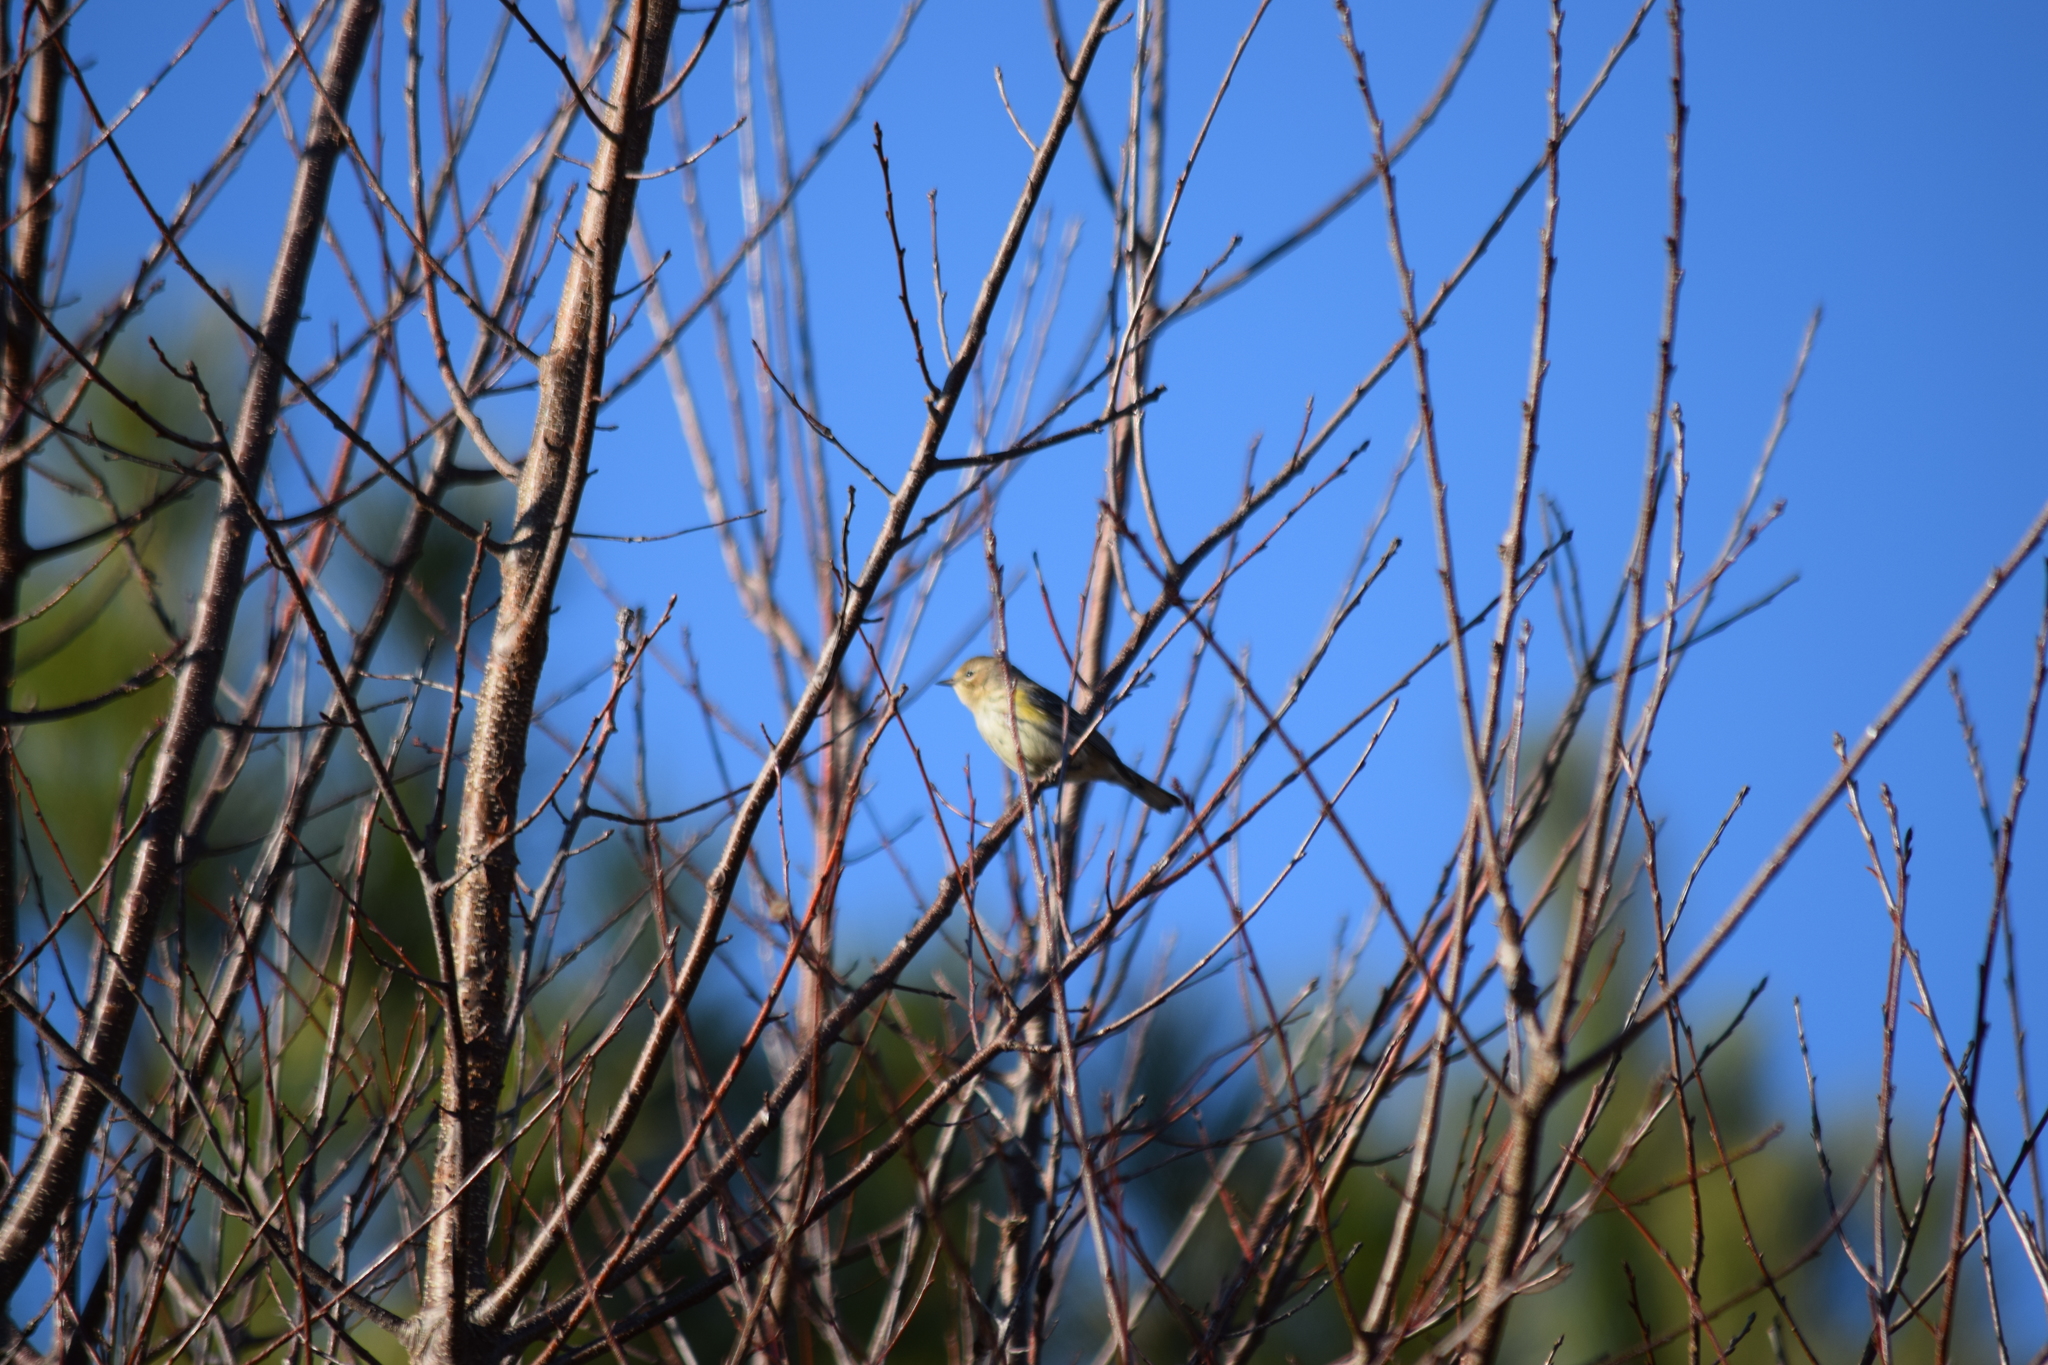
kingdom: Animalia
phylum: Chordata
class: Aves
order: Passeriformes
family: Parulidae
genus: Setophaga
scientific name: Setophaga coronata
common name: Myrtle warbler
